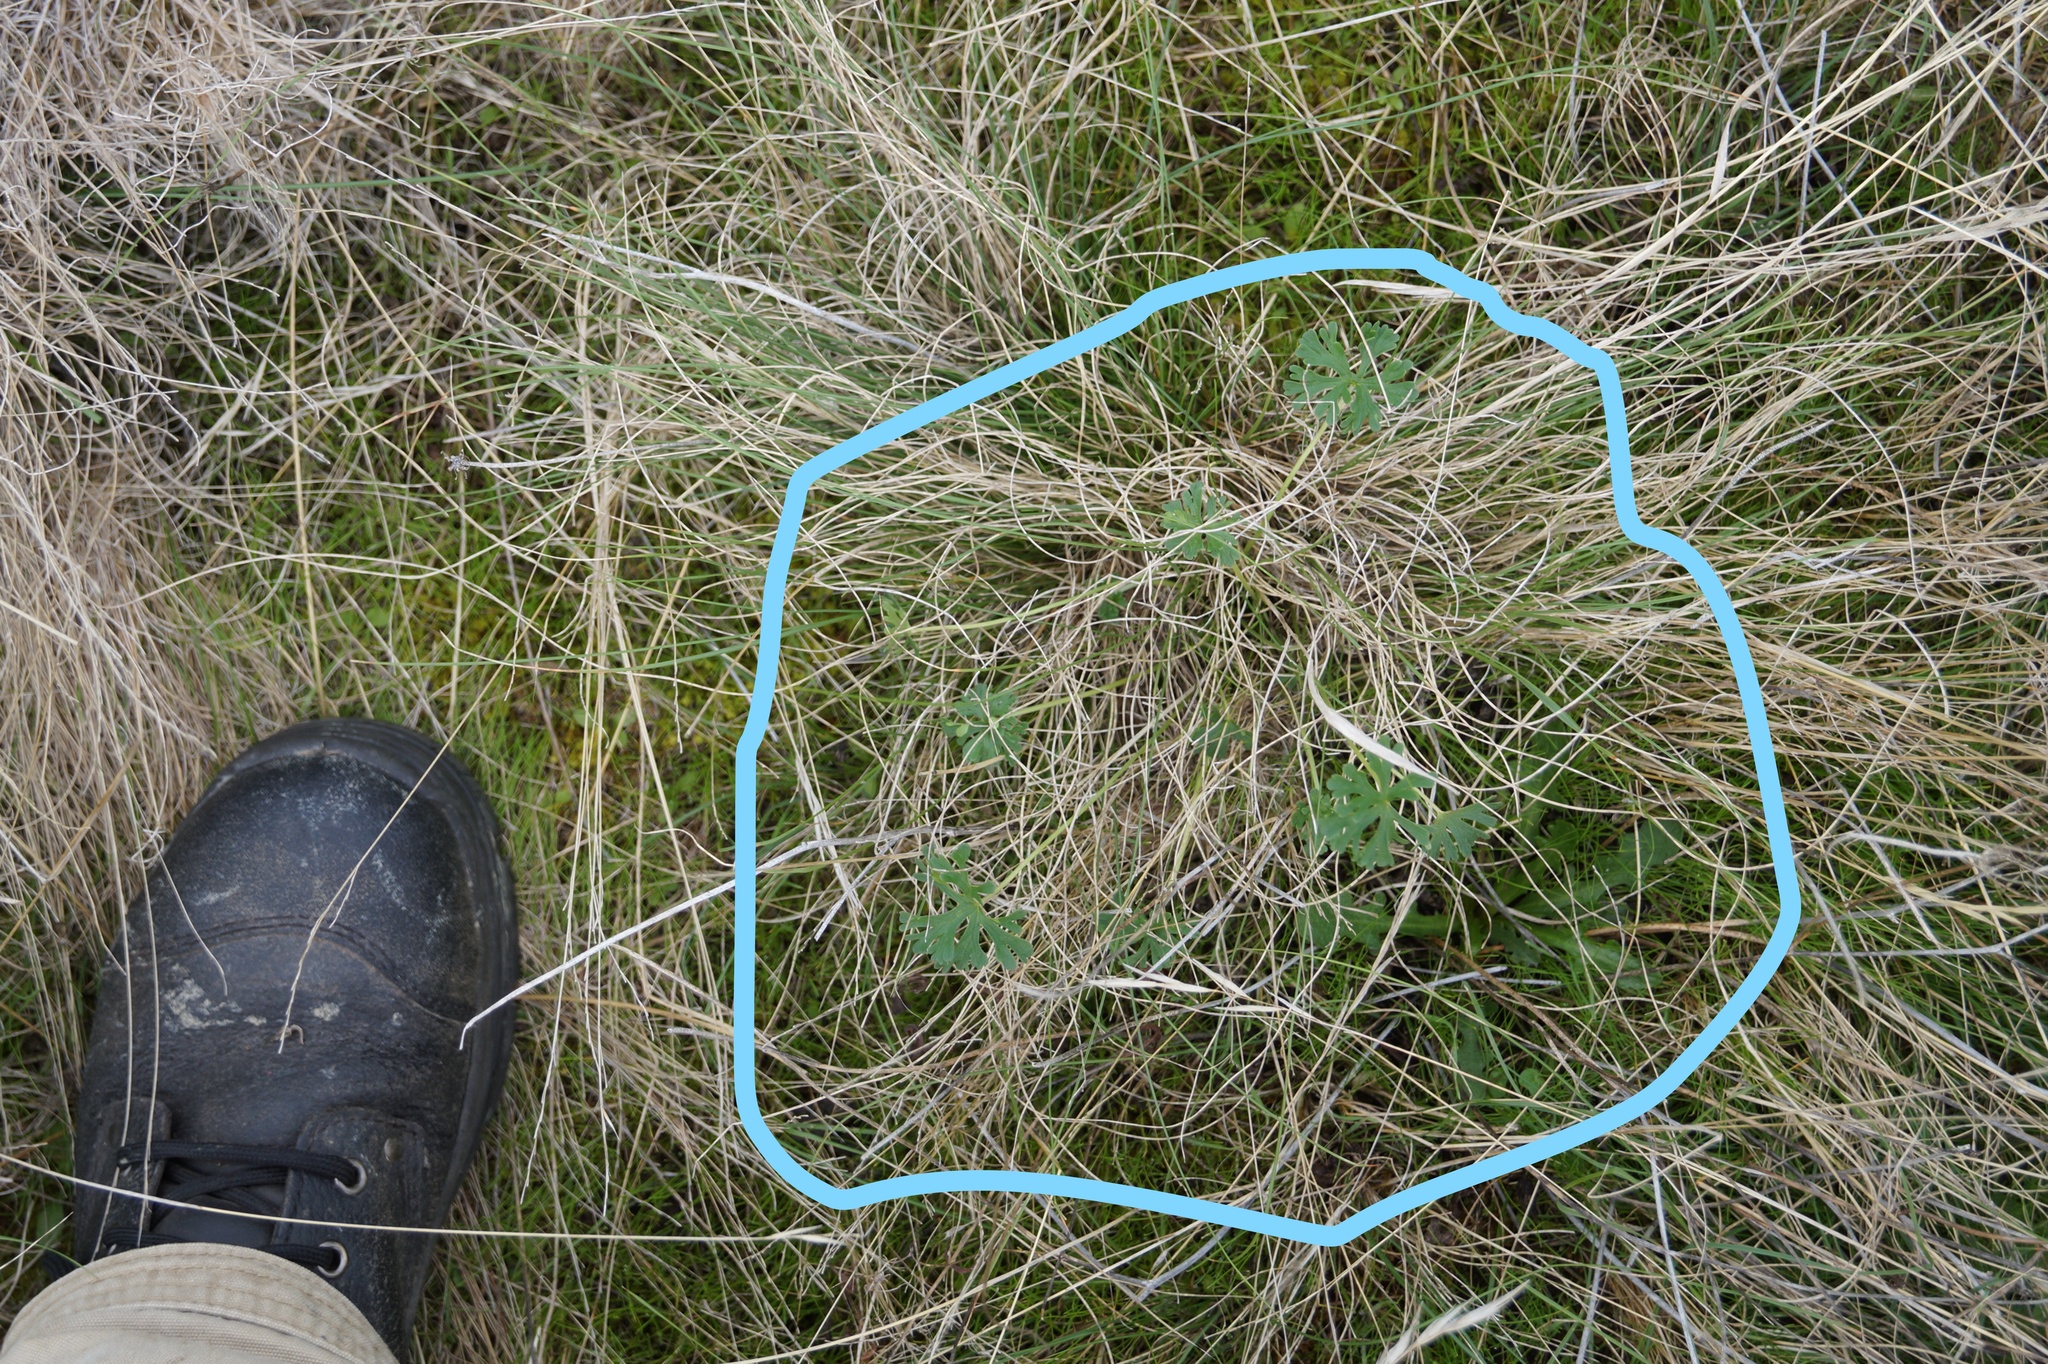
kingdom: Plantae
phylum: Tracheophyta
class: Magnoliopsida
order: Geraniales
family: Geraniaceae
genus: Geranium
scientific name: Geranium retrorsum
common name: New zealand geranium
